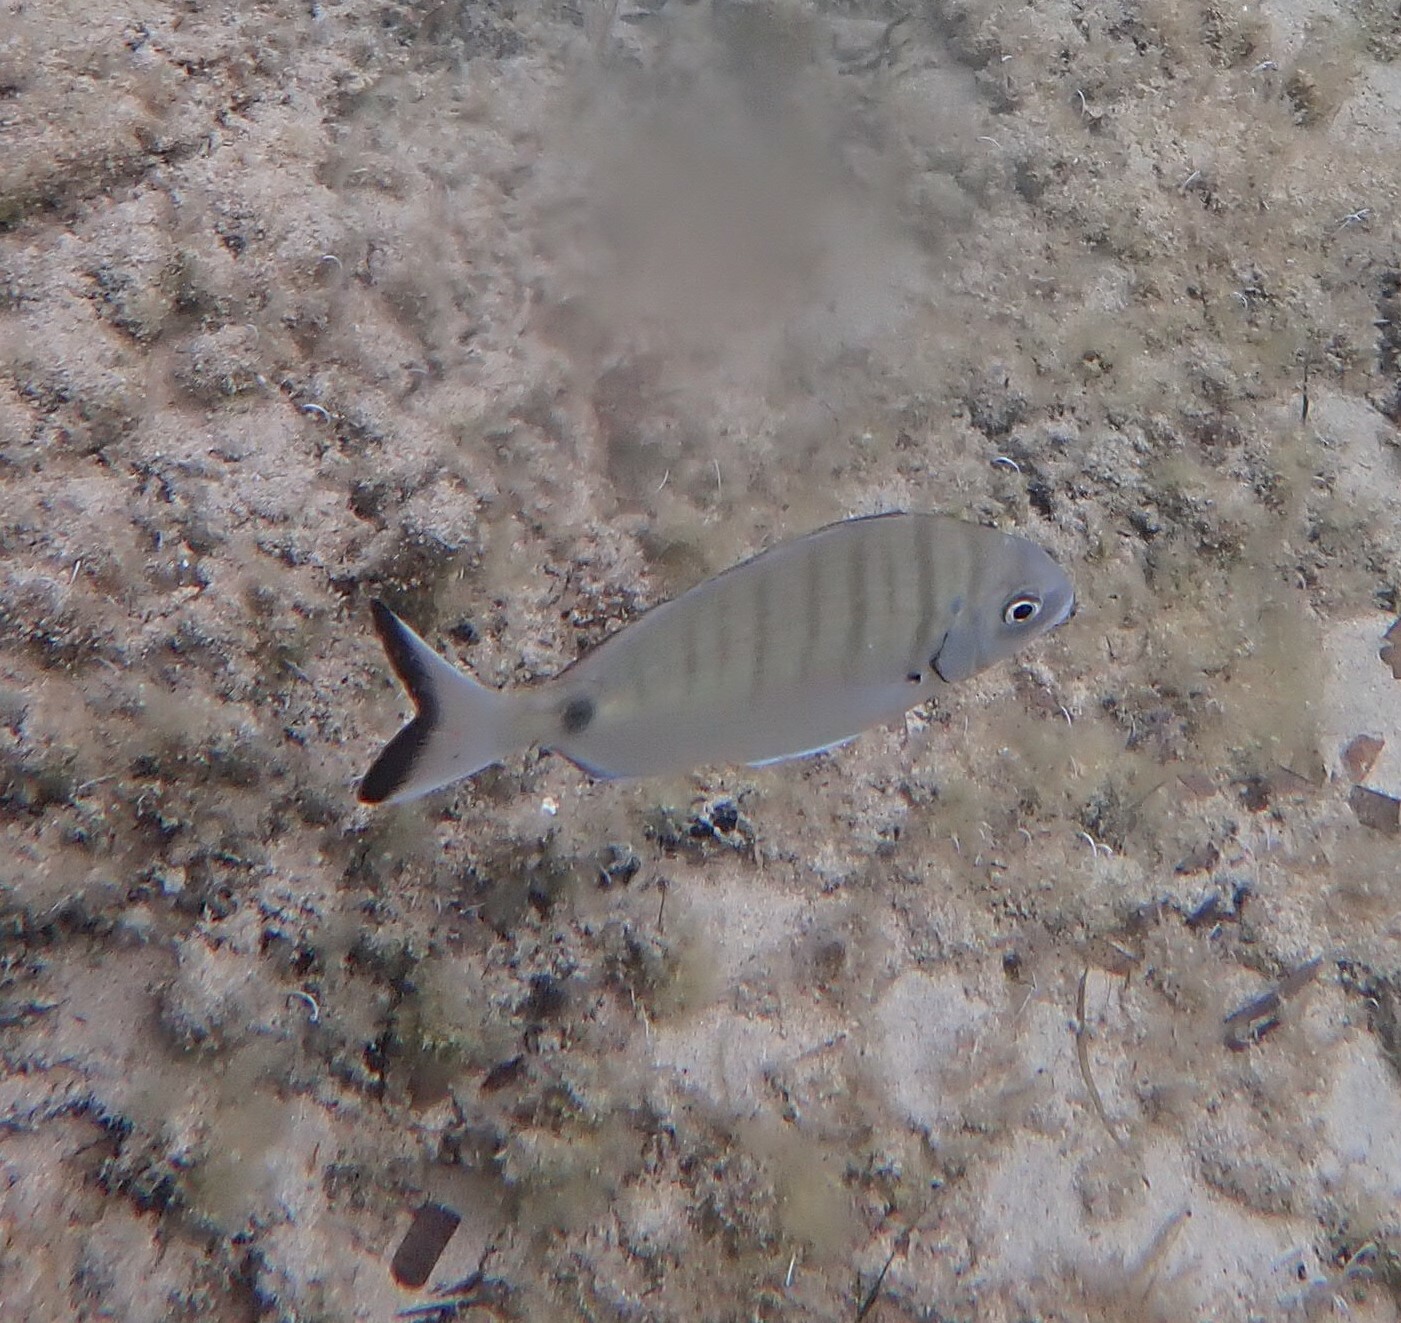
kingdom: Animalia
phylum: Chordata
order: Perciformes
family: Sparidae
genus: Diplodus
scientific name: Diplodus sargus
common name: White seabream
